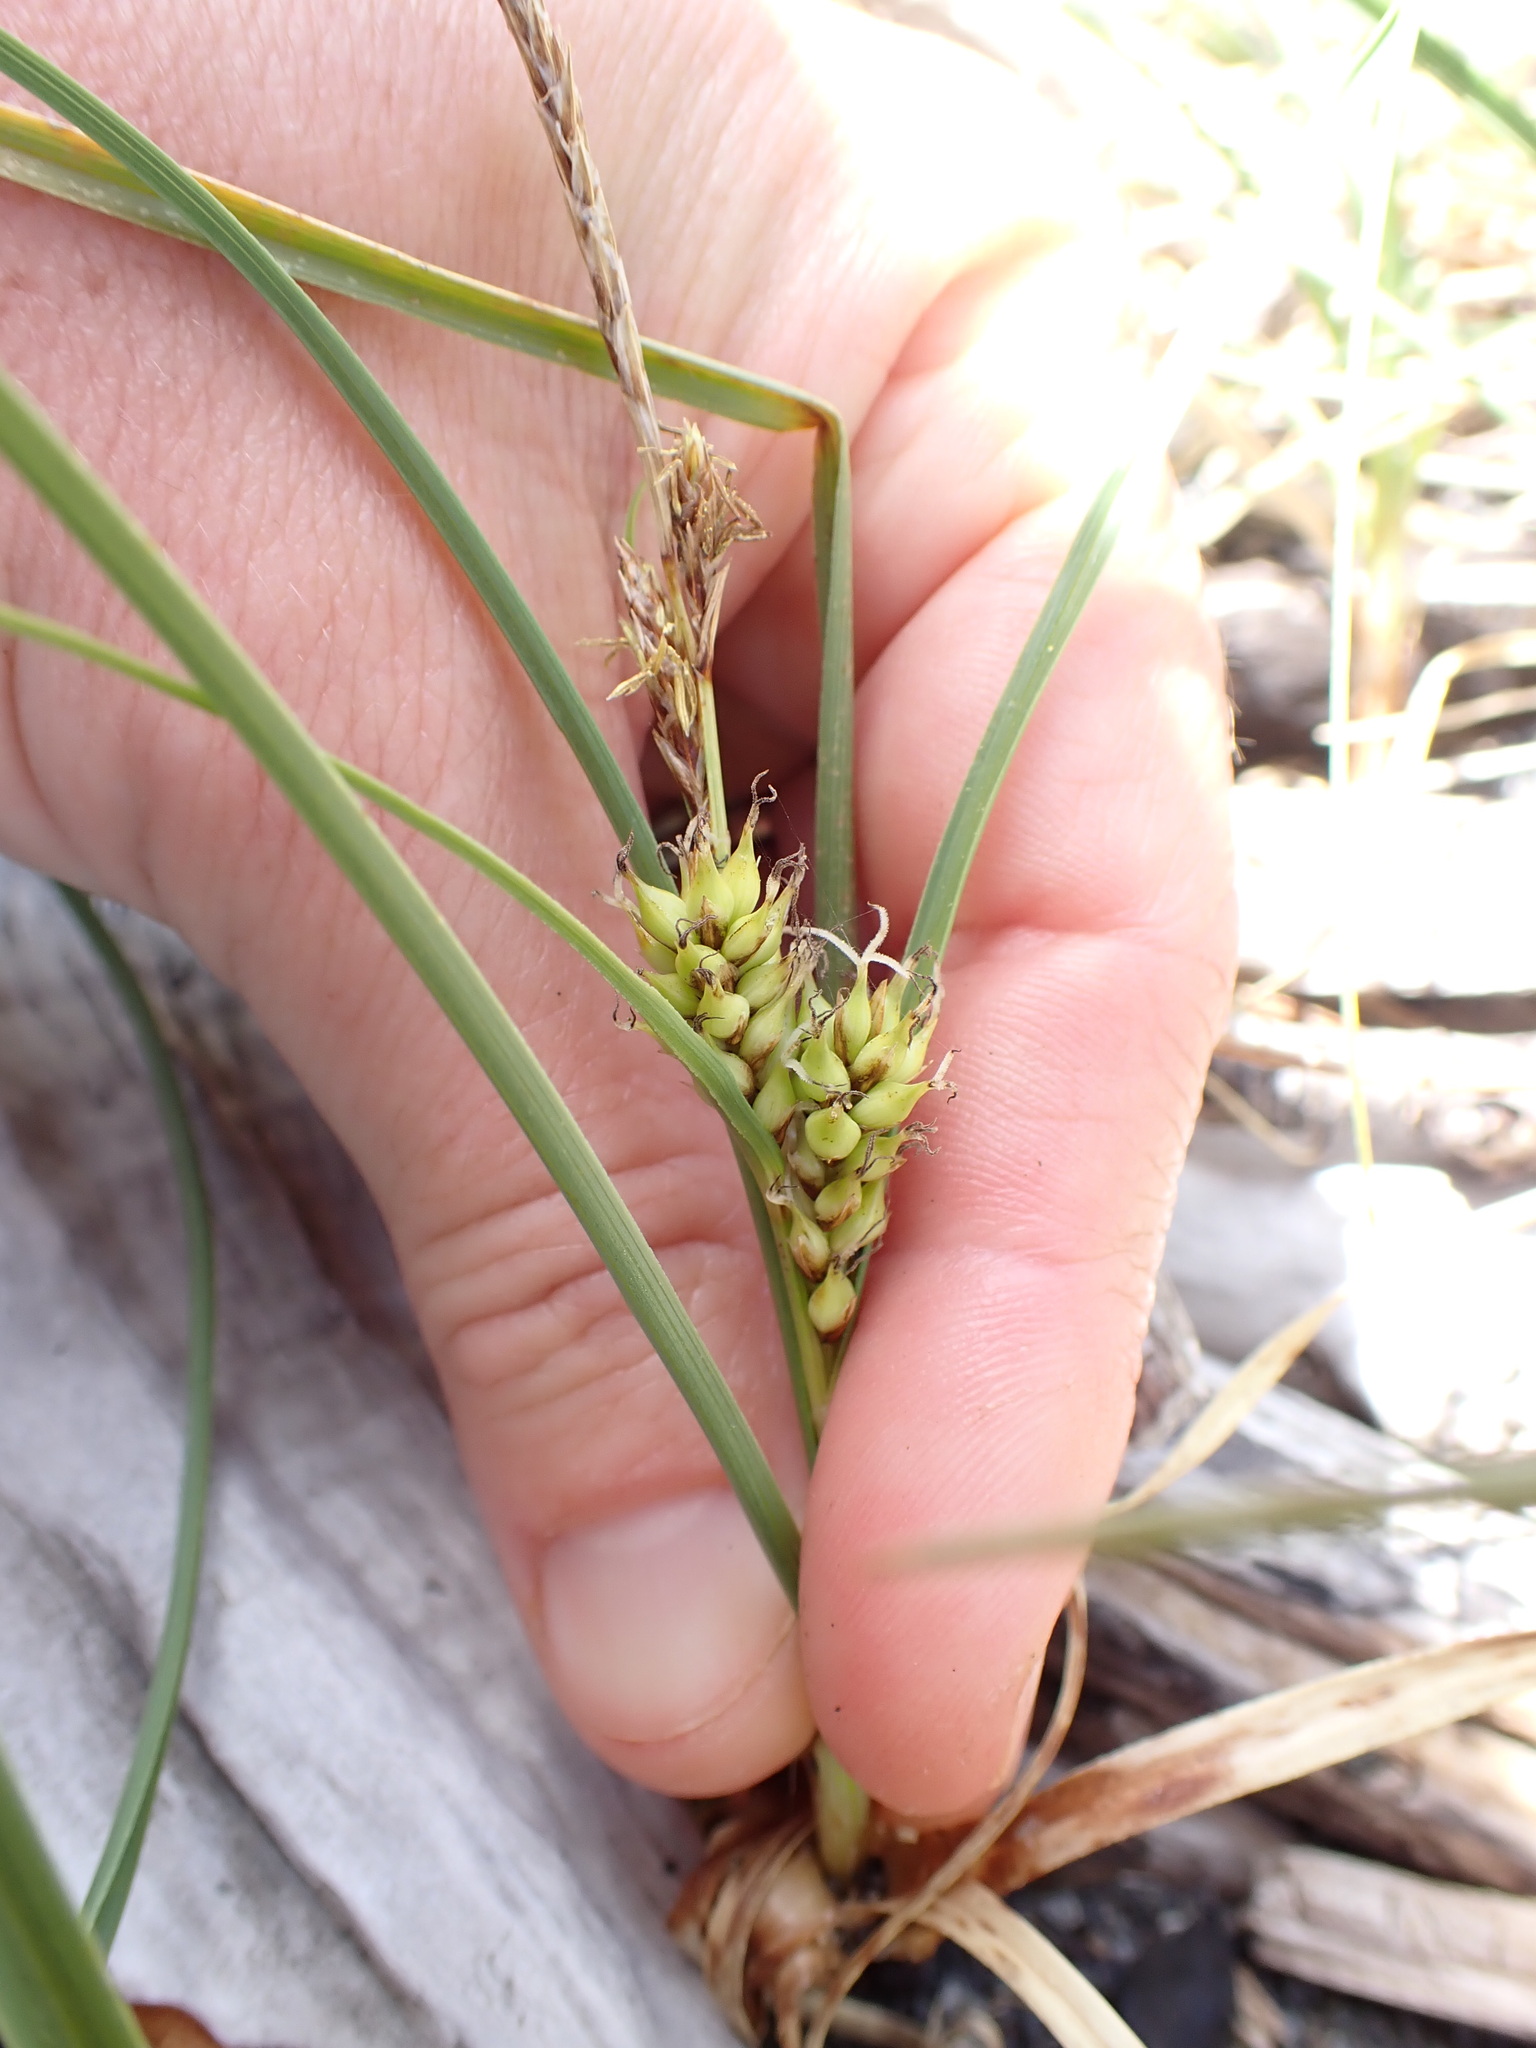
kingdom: Plantae
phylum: Tracheophyta
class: Liliopsida
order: Poales
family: Cyperaceae
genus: Carex
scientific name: Carex pumila
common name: Dwarf sedge
